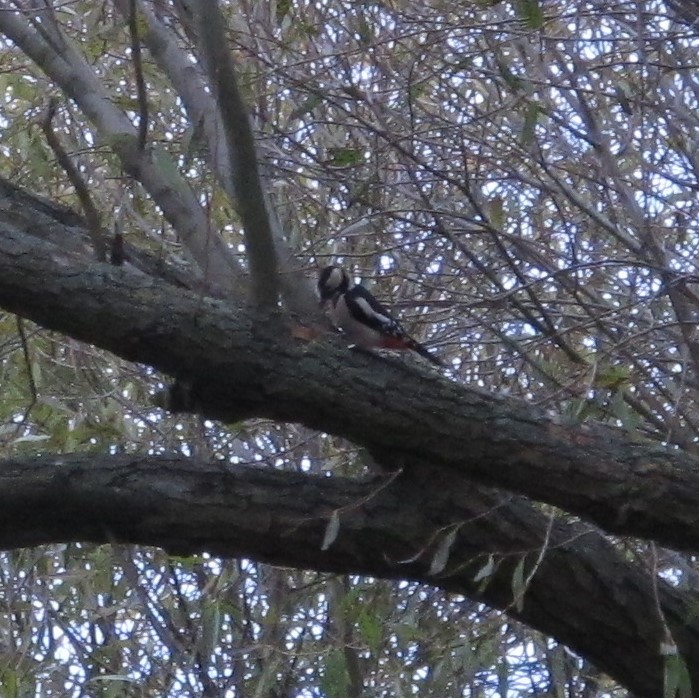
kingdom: Animalia
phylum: Chordata
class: Aves
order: Piciformes
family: Picidae
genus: Dendrocopos
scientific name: Dendrocopos major
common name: Great spotted woodpecker
